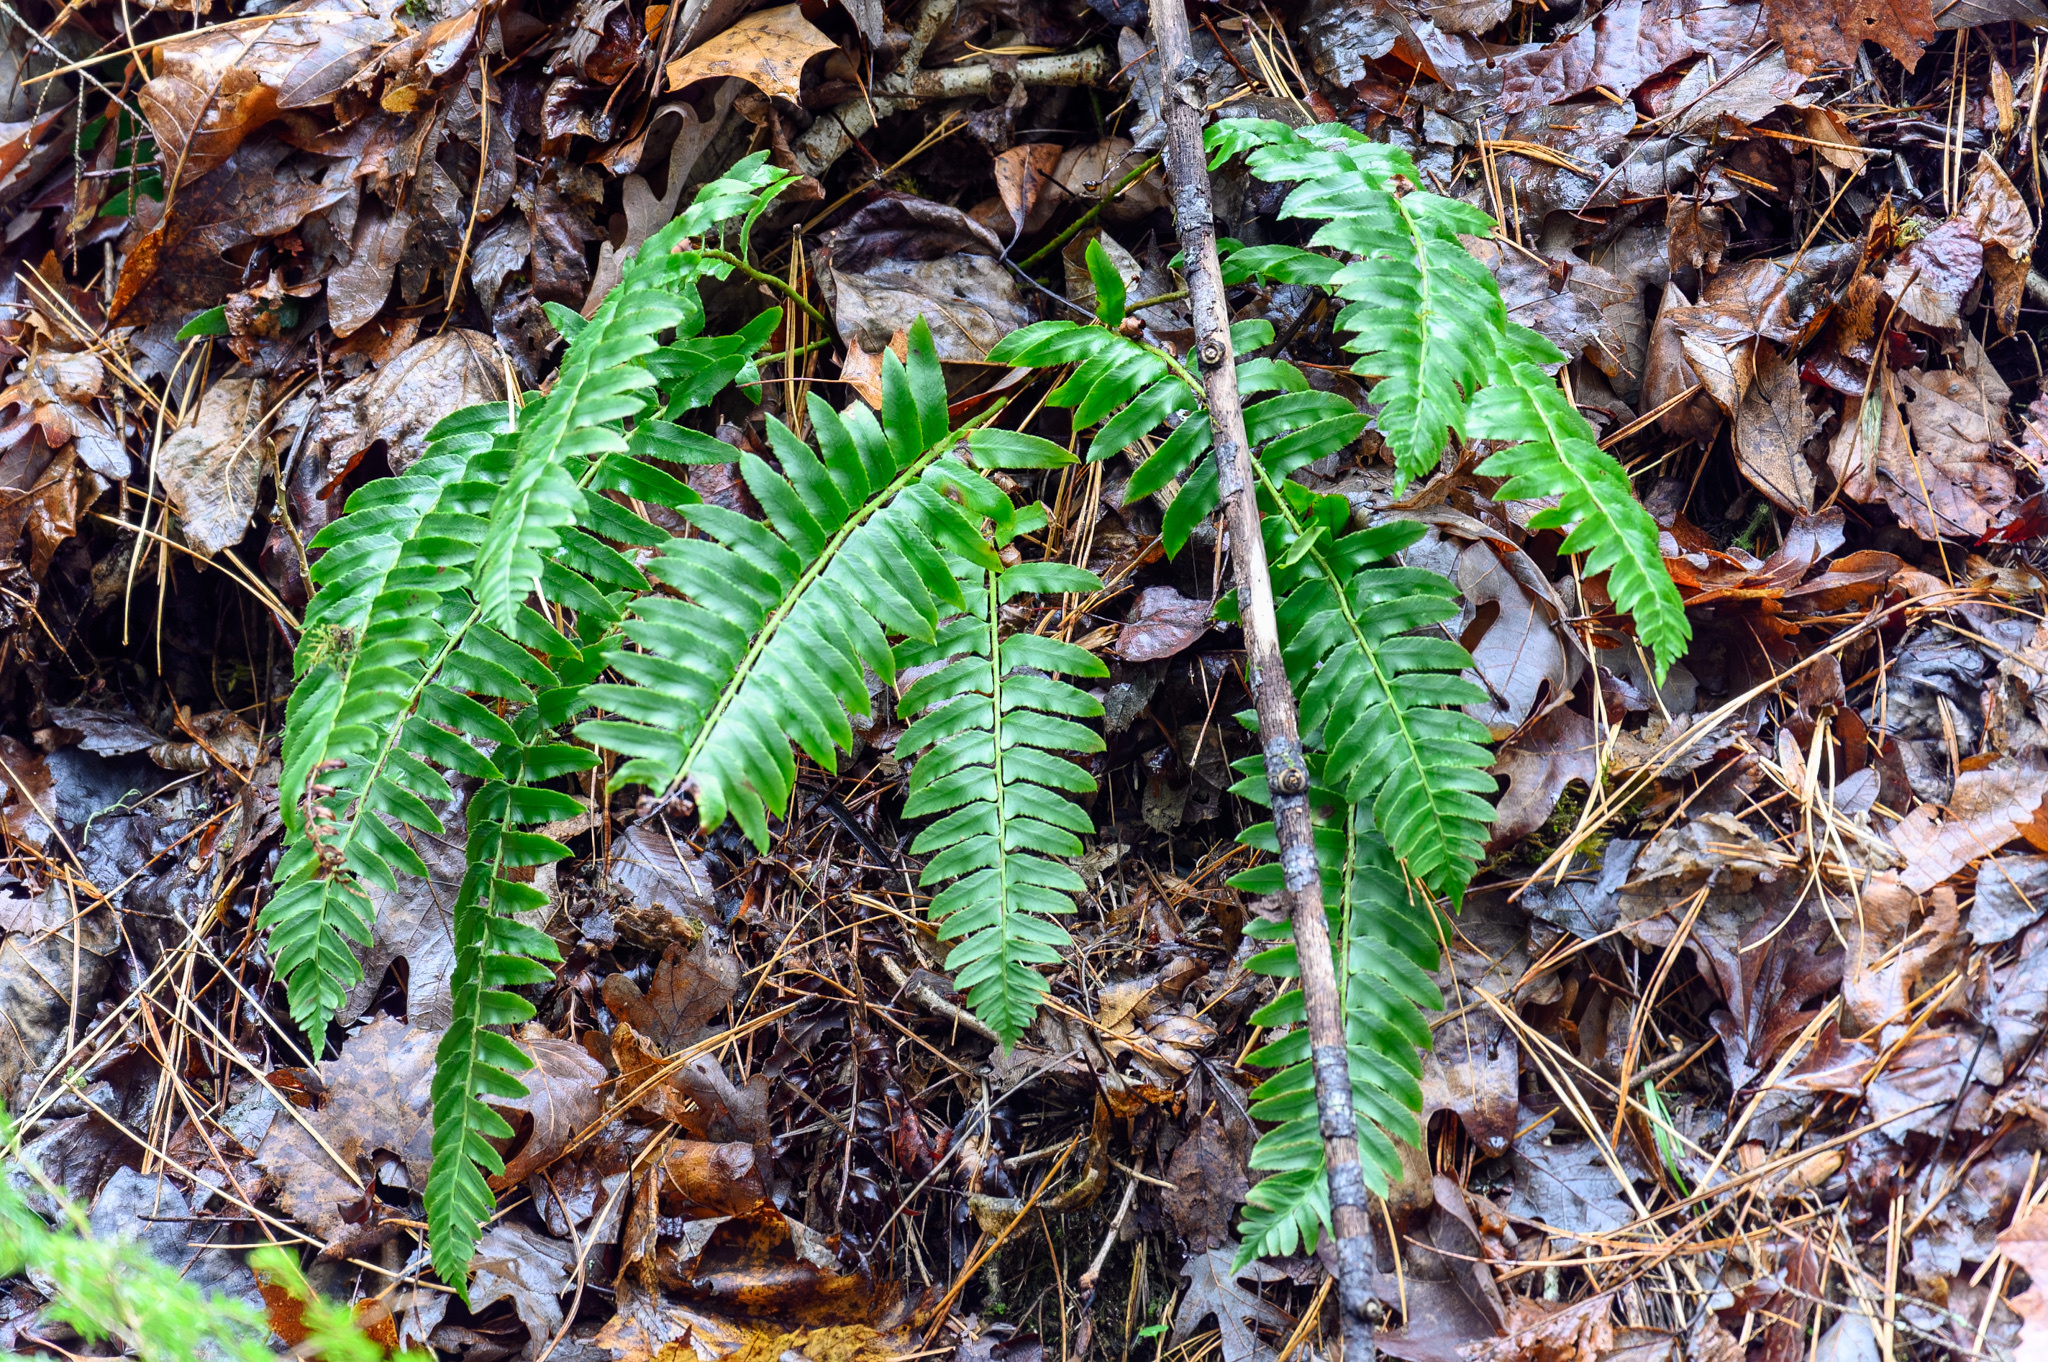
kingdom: Plantae
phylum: Tracheophyta
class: Polypodiopsida
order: Polypodiales
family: Dryopteridaceae
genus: Polystichum
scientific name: Polystichum acrostichoides
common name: Christmas fern
